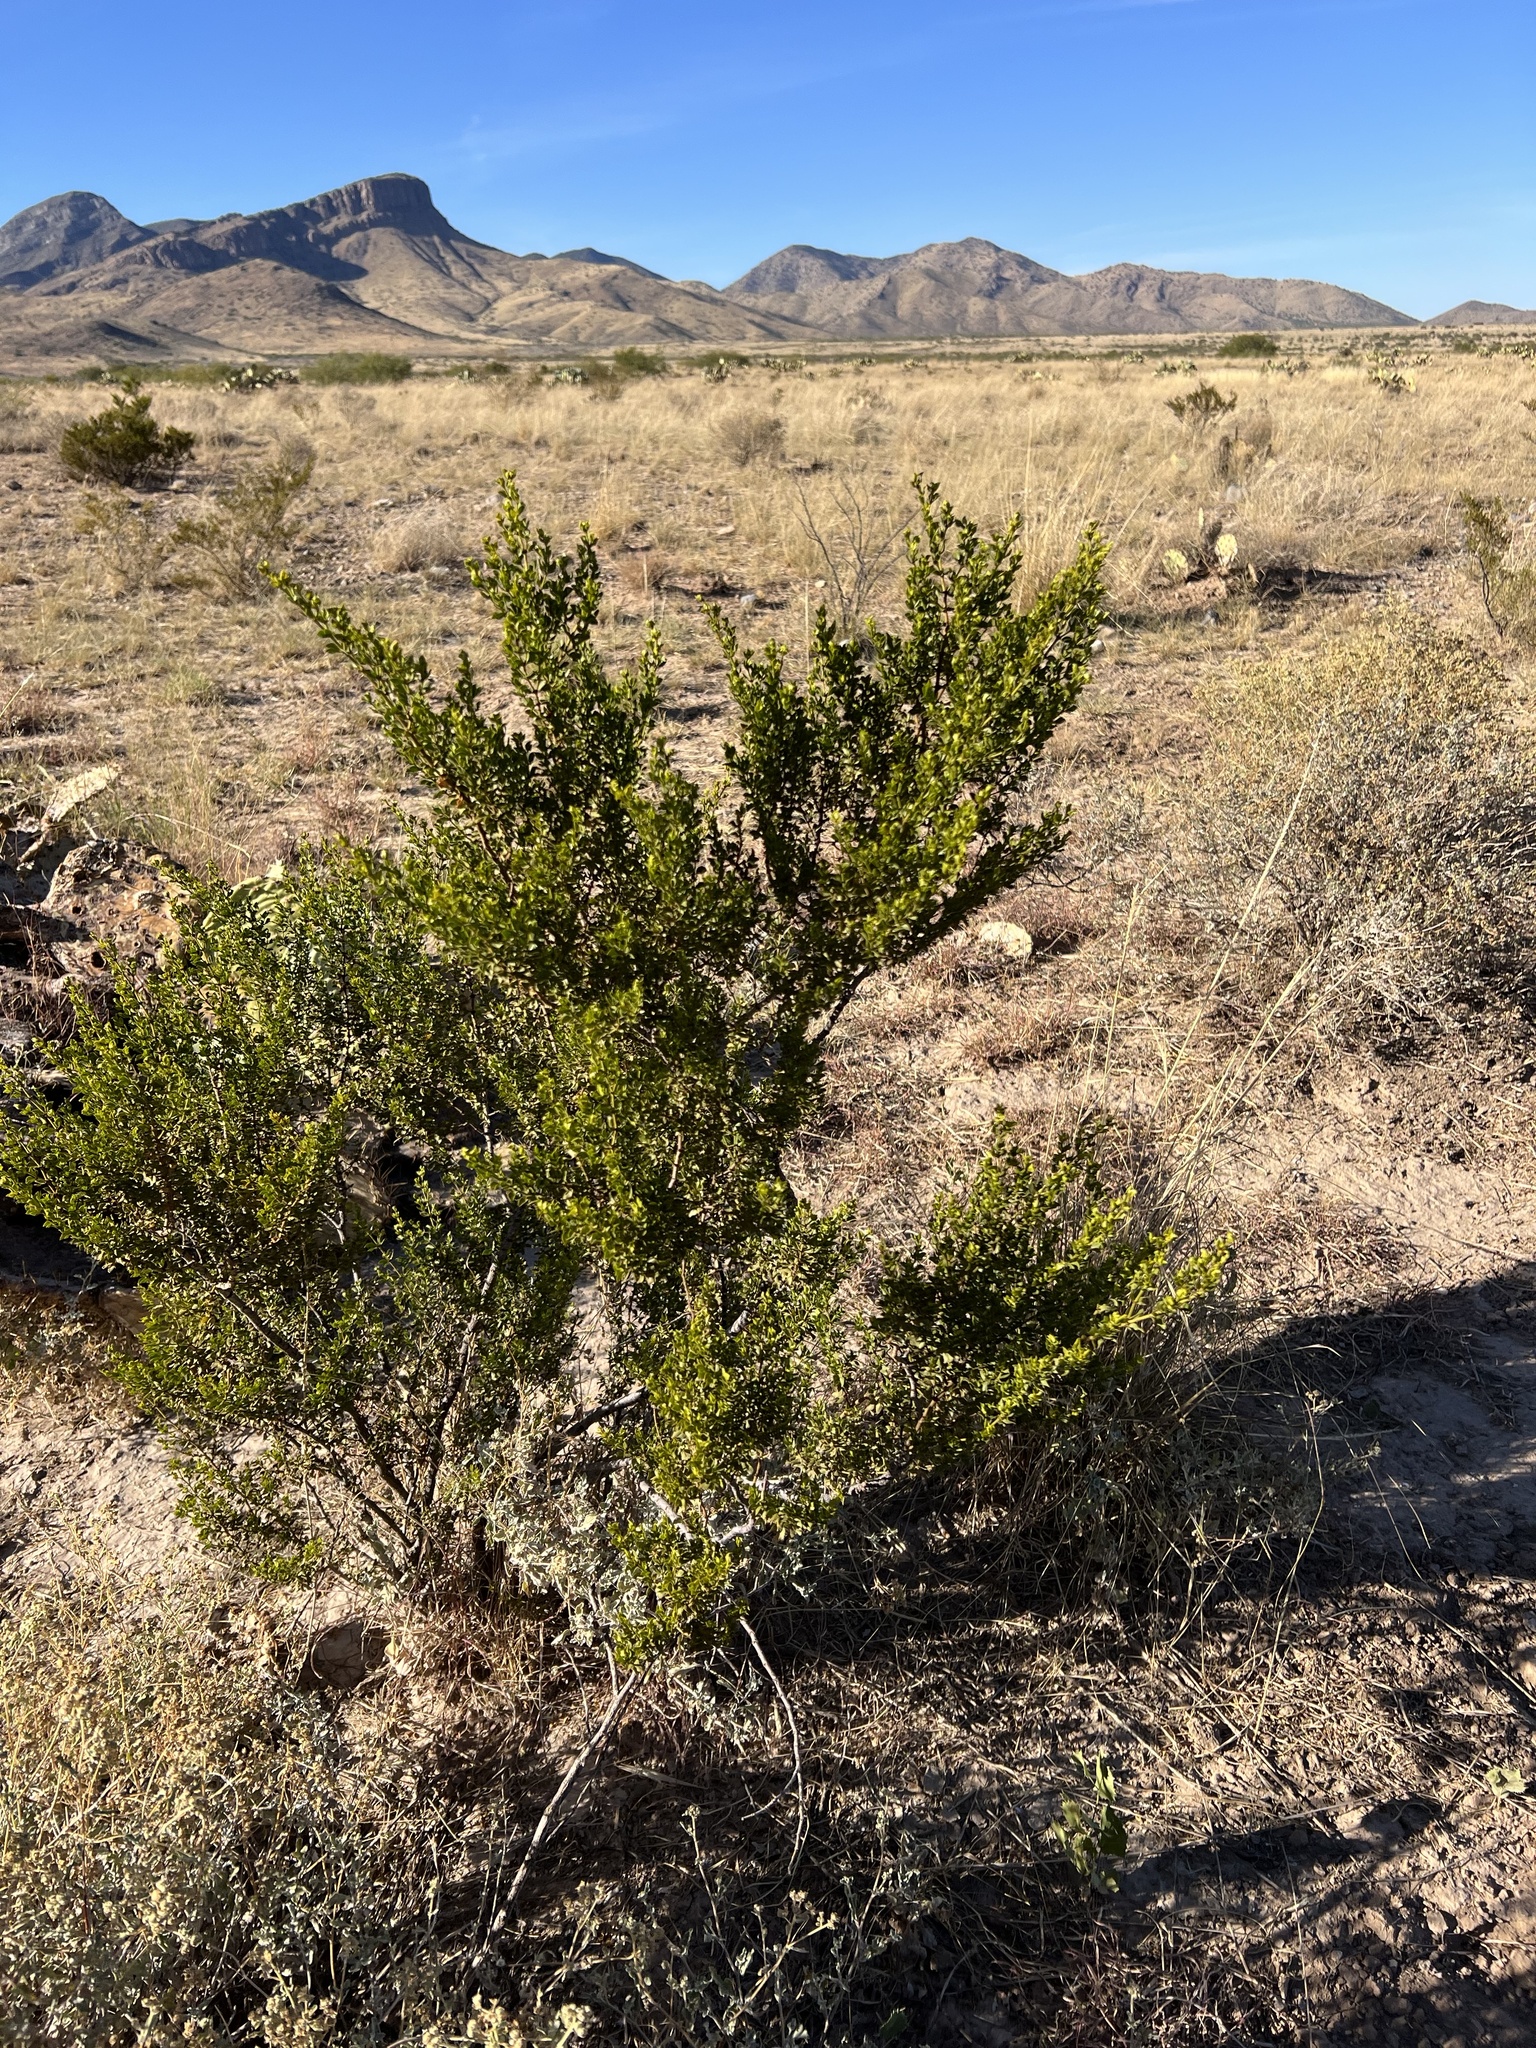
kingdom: Plantae
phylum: Tracheophyta
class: Magnoliopsida
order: Zygophyllales
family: Zygophyllaceae
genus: Larrea
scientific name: Larrea tridentata
